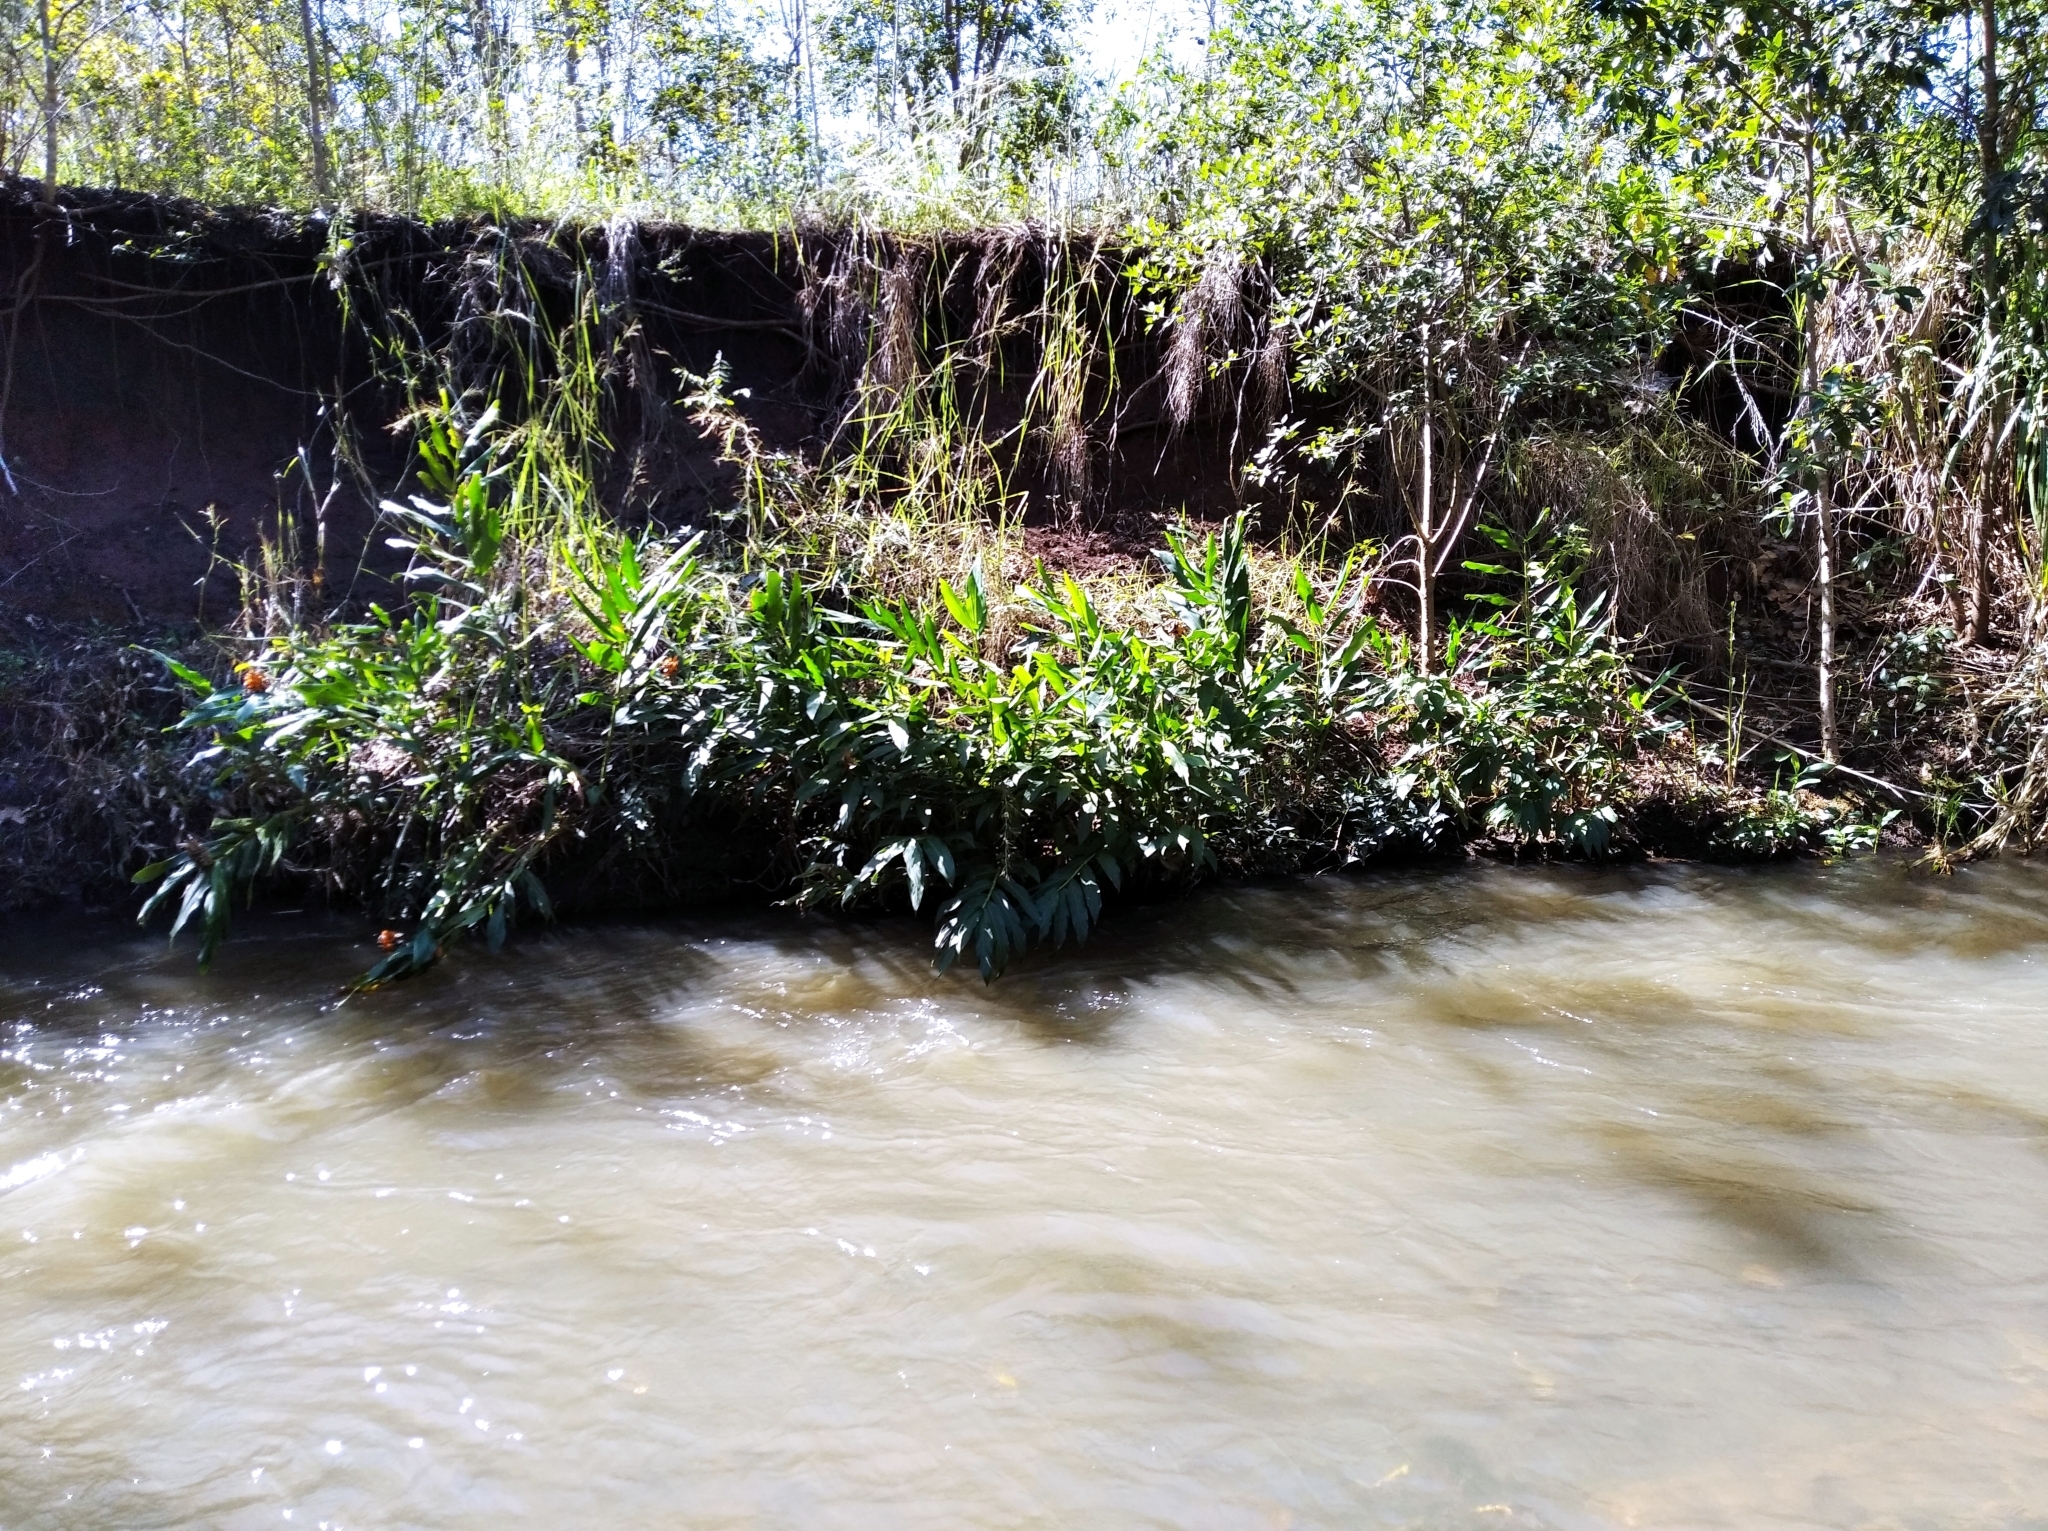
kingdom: Plantae
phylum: Tracheophyta
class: Liliopsida
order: Zingiberales
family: Zingiberaceae
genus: Hedychium
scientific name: Hedychium coronarium
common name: White garland-lily
